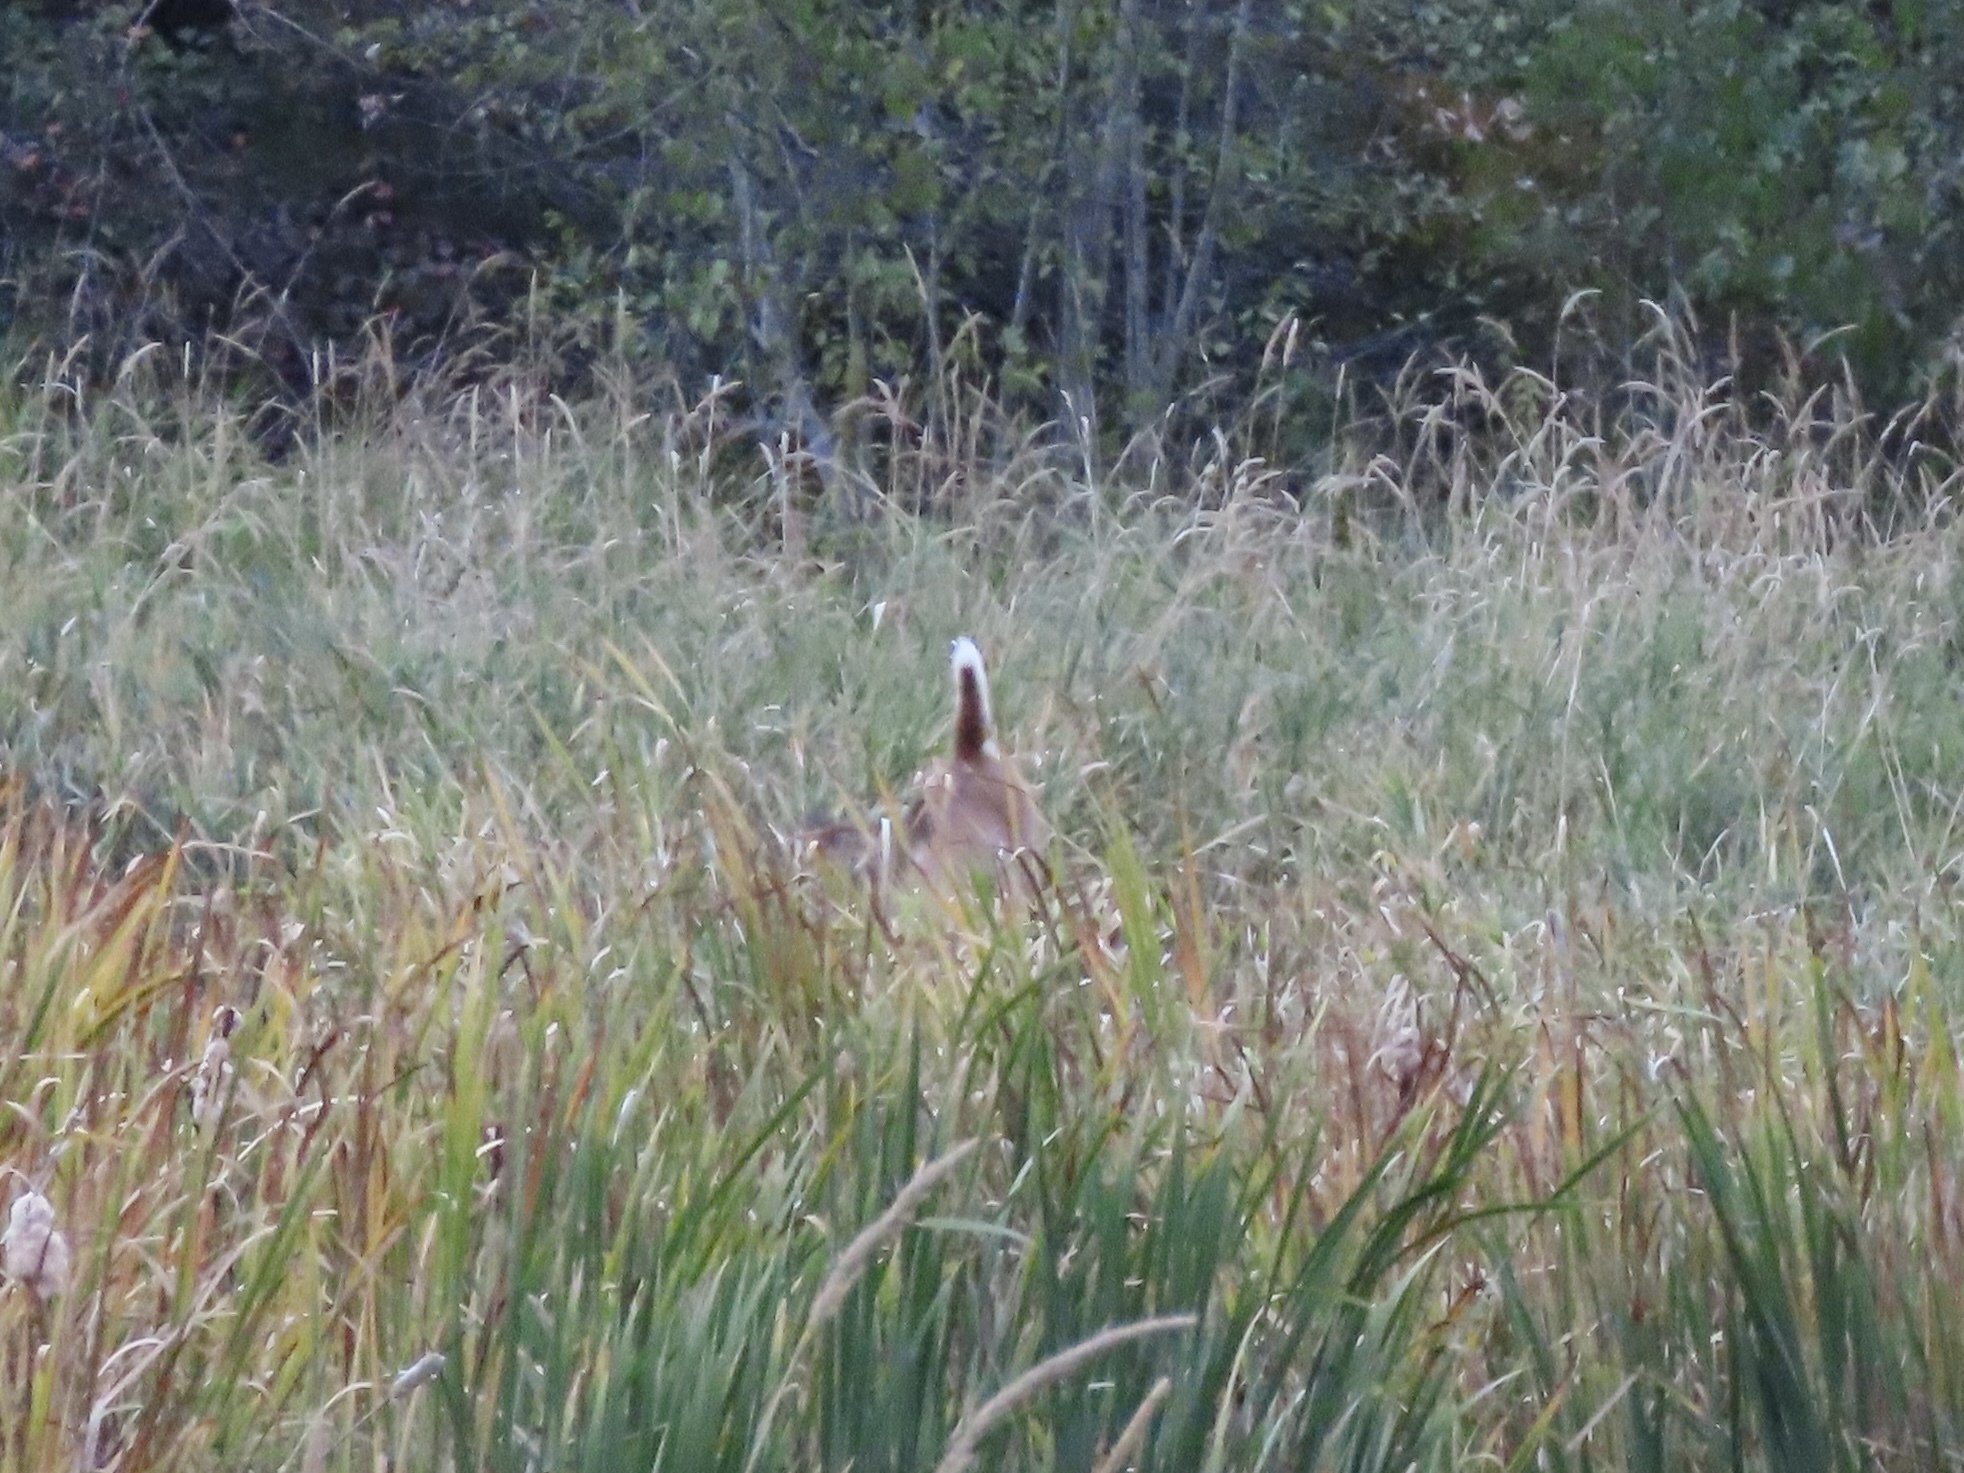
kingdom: Animalia
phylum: Chordata
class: Mammalia
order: Artiodactyla
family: Cervidae
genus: Odocoileus
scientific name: Odocoileus virginianus
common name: White-tailed deer
